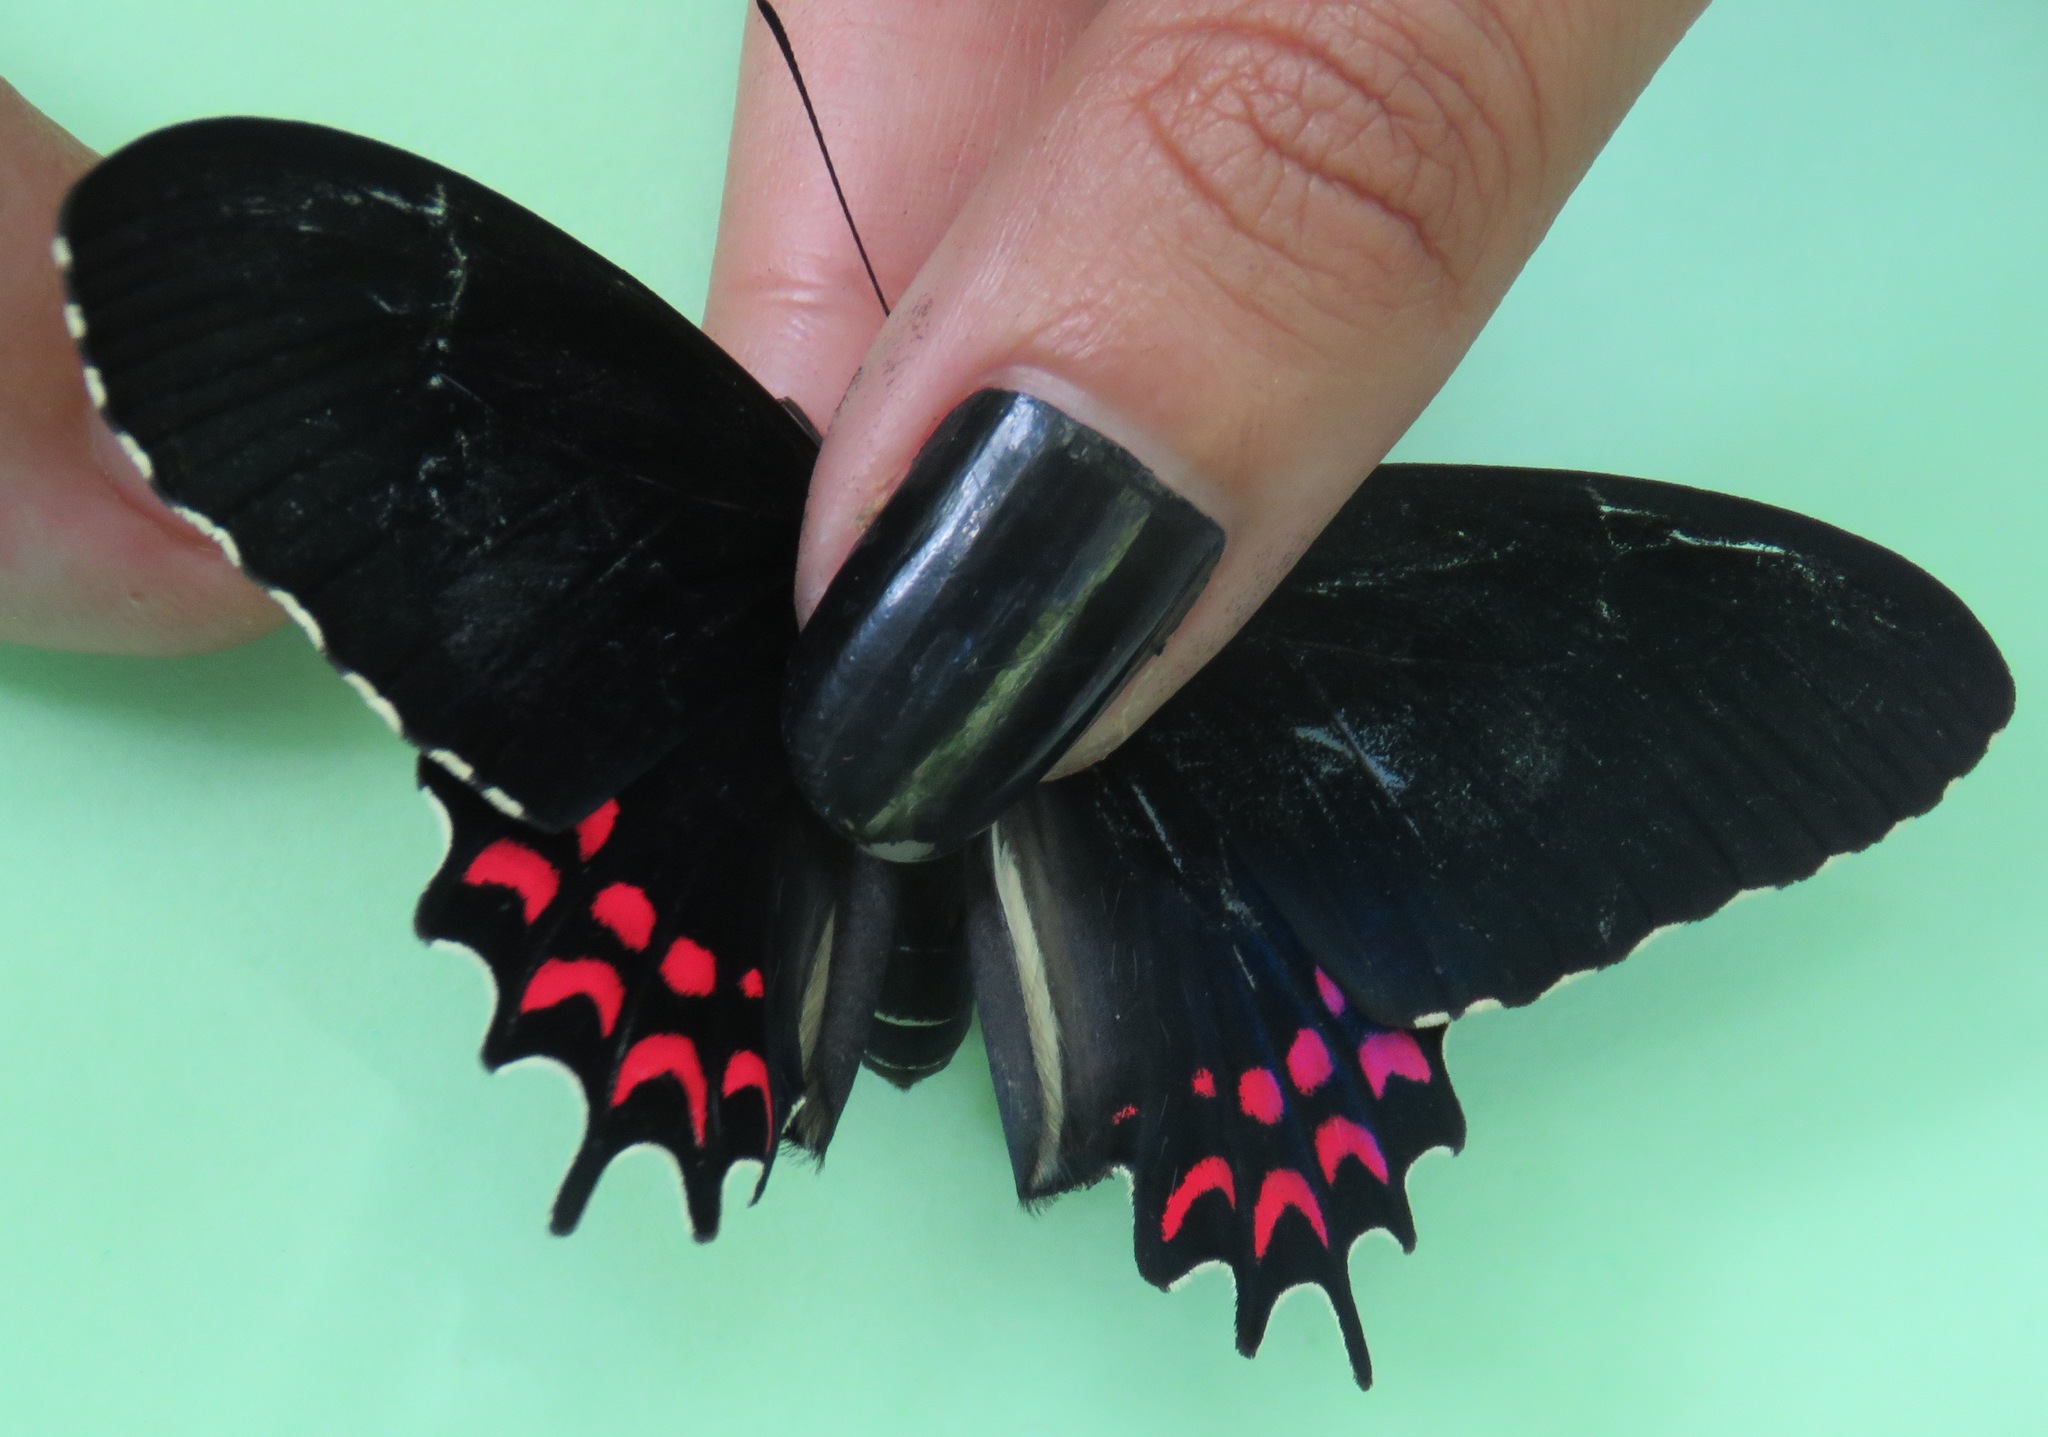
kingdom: Animalia
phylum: Arthropoda
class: Insecta
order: Lepidoptera
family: Papilionidae
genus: Parides
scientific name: Parides photinus
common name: Pink-spotted cattleheart
